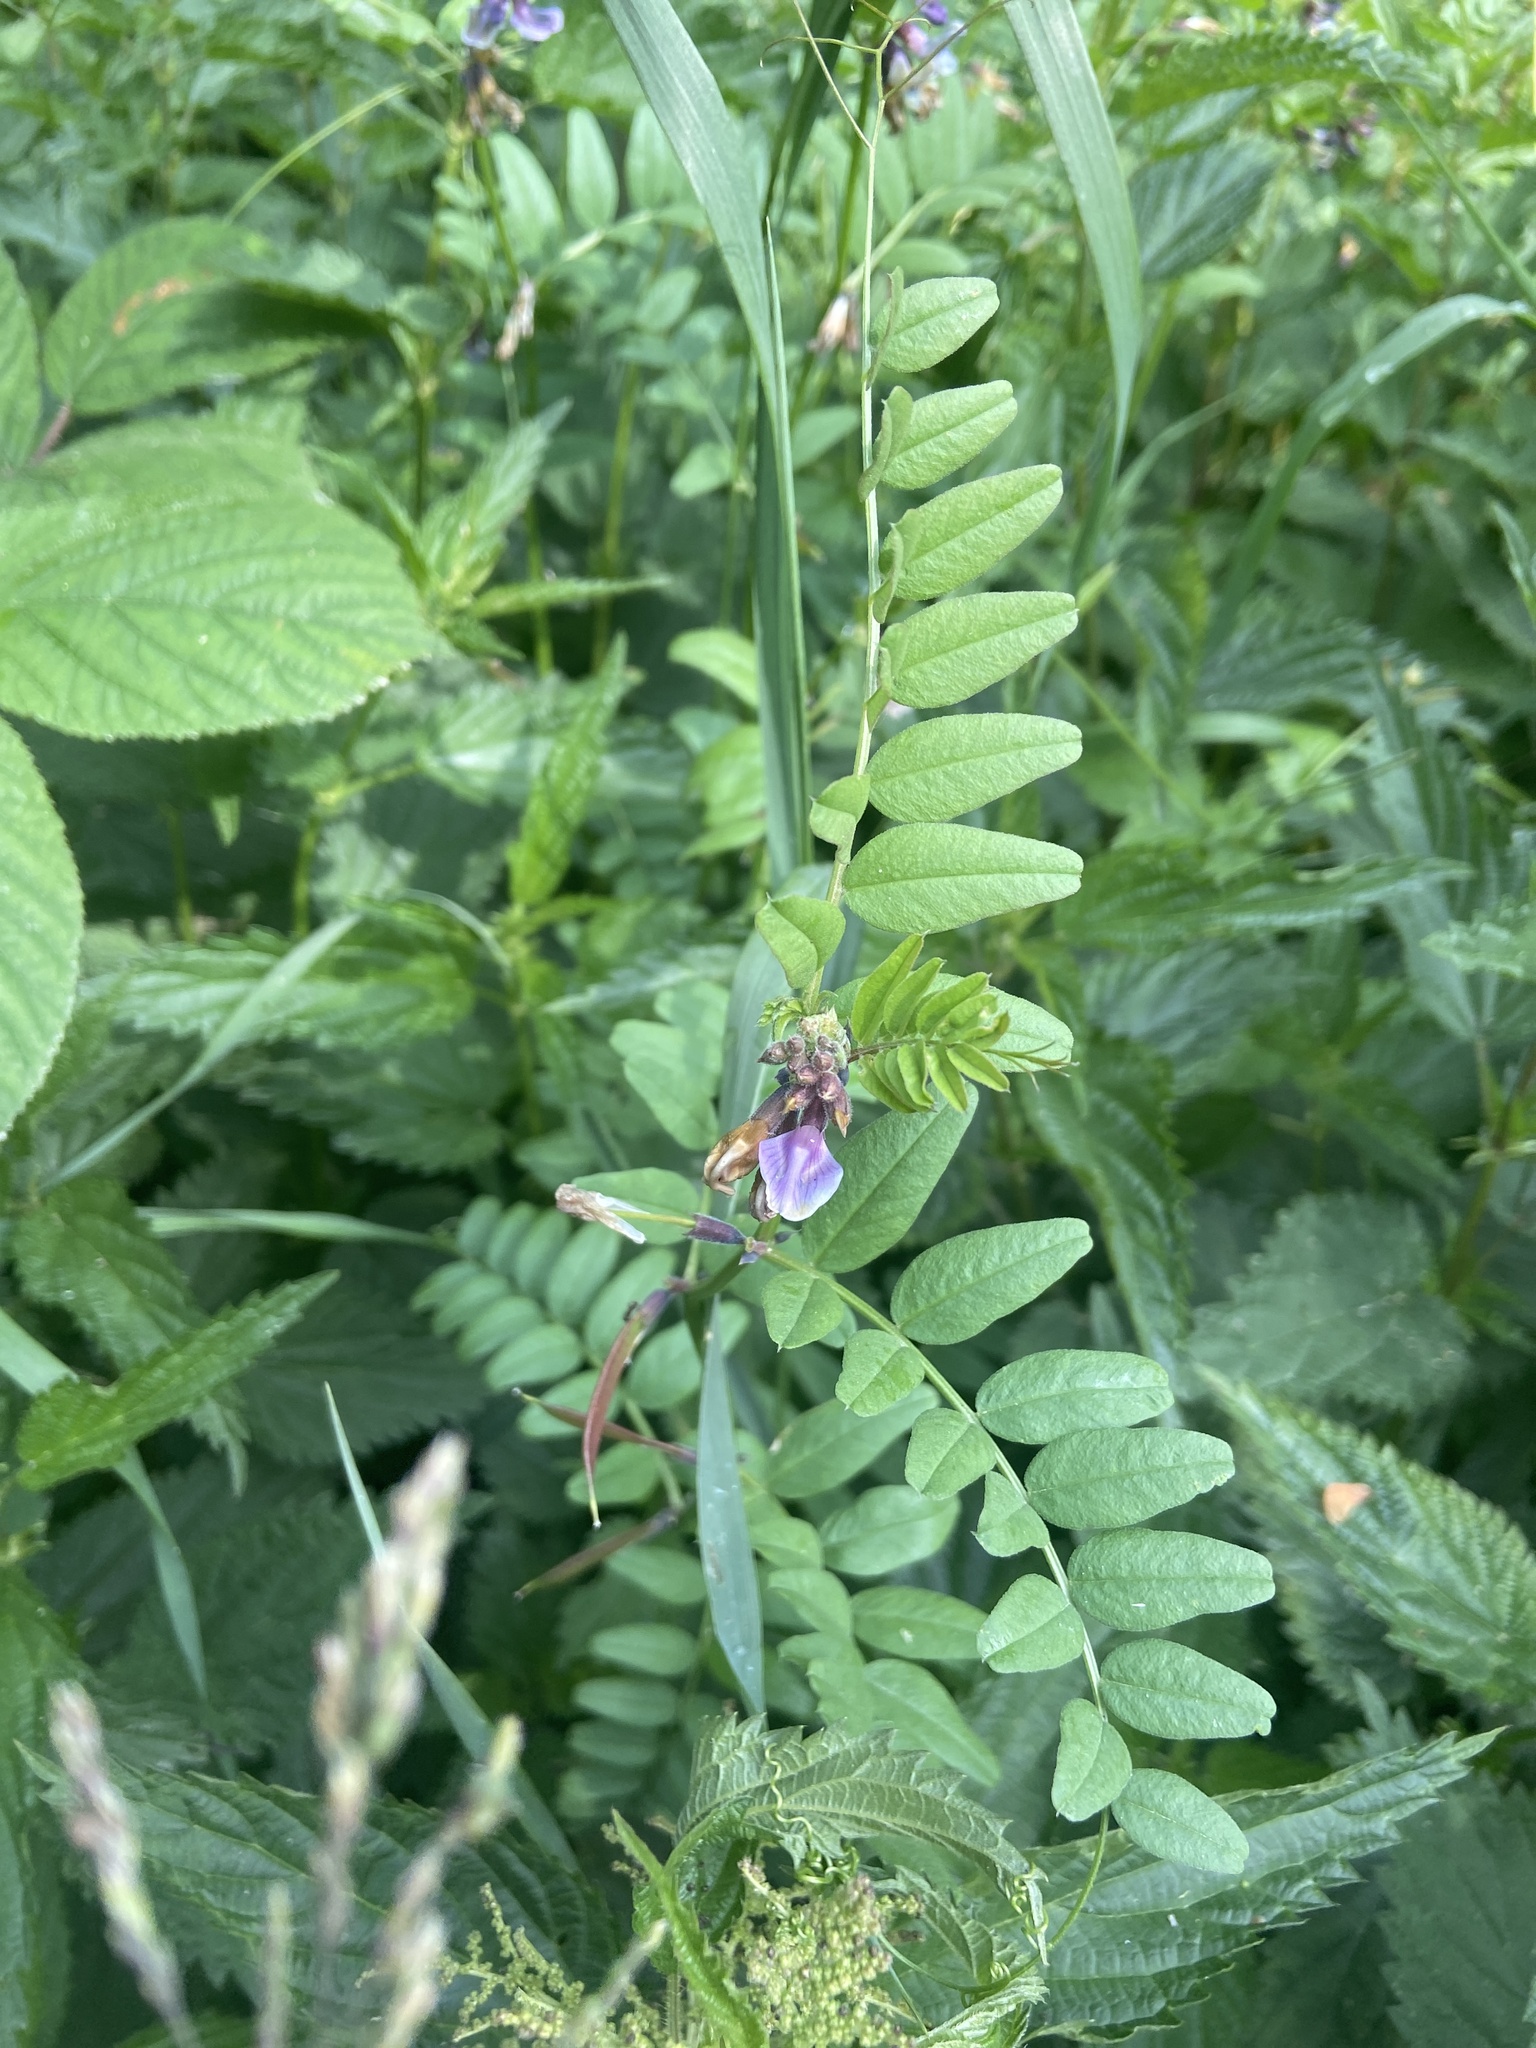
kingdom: Plantae
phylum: Tracheophyta
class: Magnoliopsida
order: Fabales
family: Fabaceae
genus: Vicia
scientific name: Vicia sepium
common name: Bush vetch
